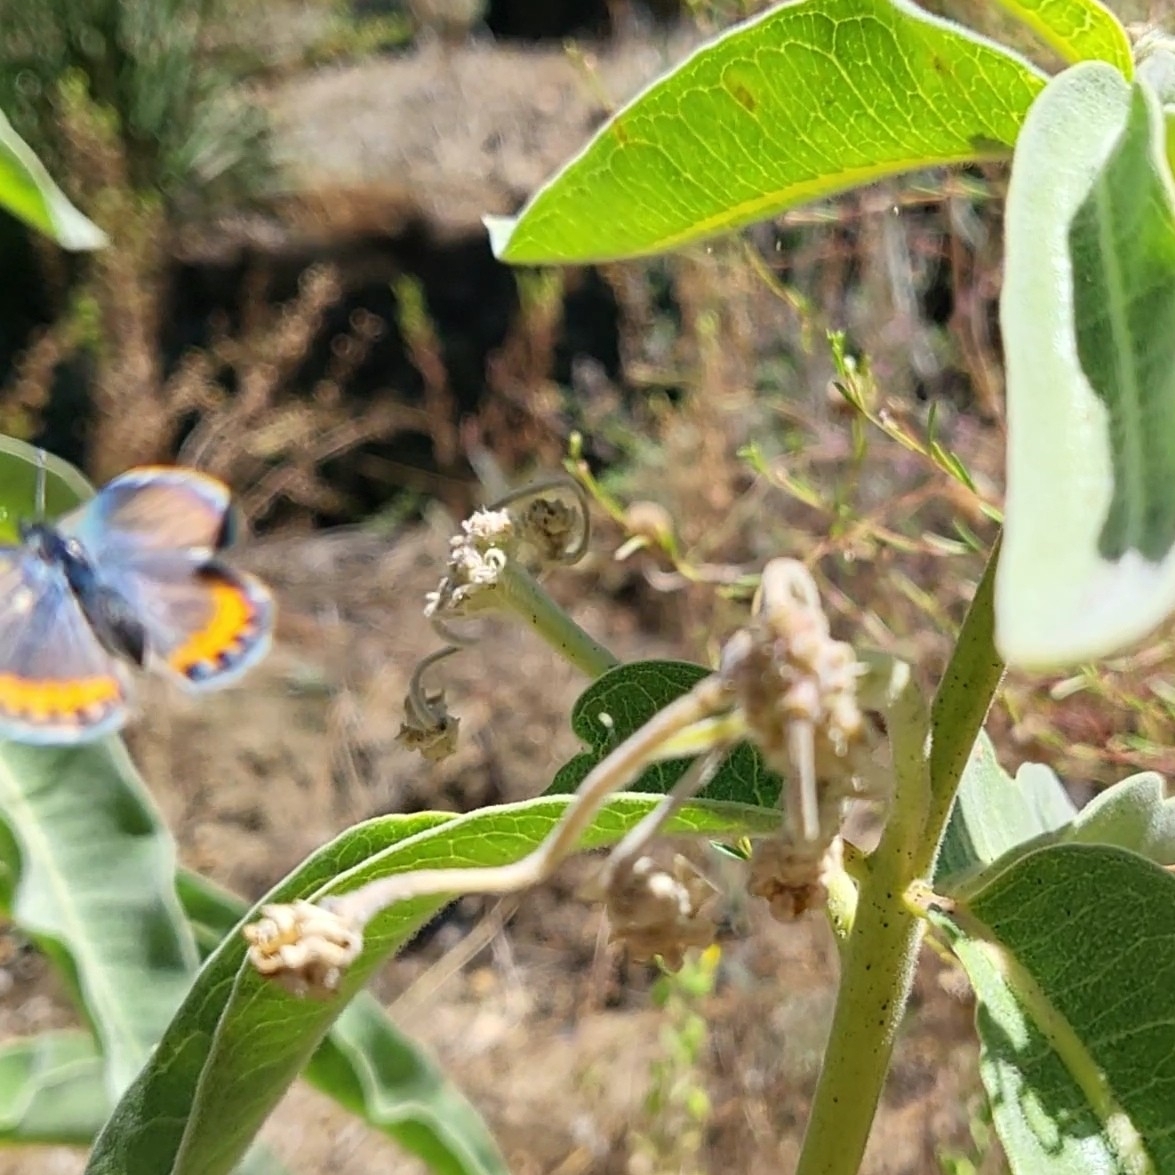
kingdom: Animalia
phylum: Arthropoda
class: Insecta
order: Lepidoptera
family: Lycaenidae
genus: Icaricia
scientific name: Icaricia acmon
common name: Acmon blue
